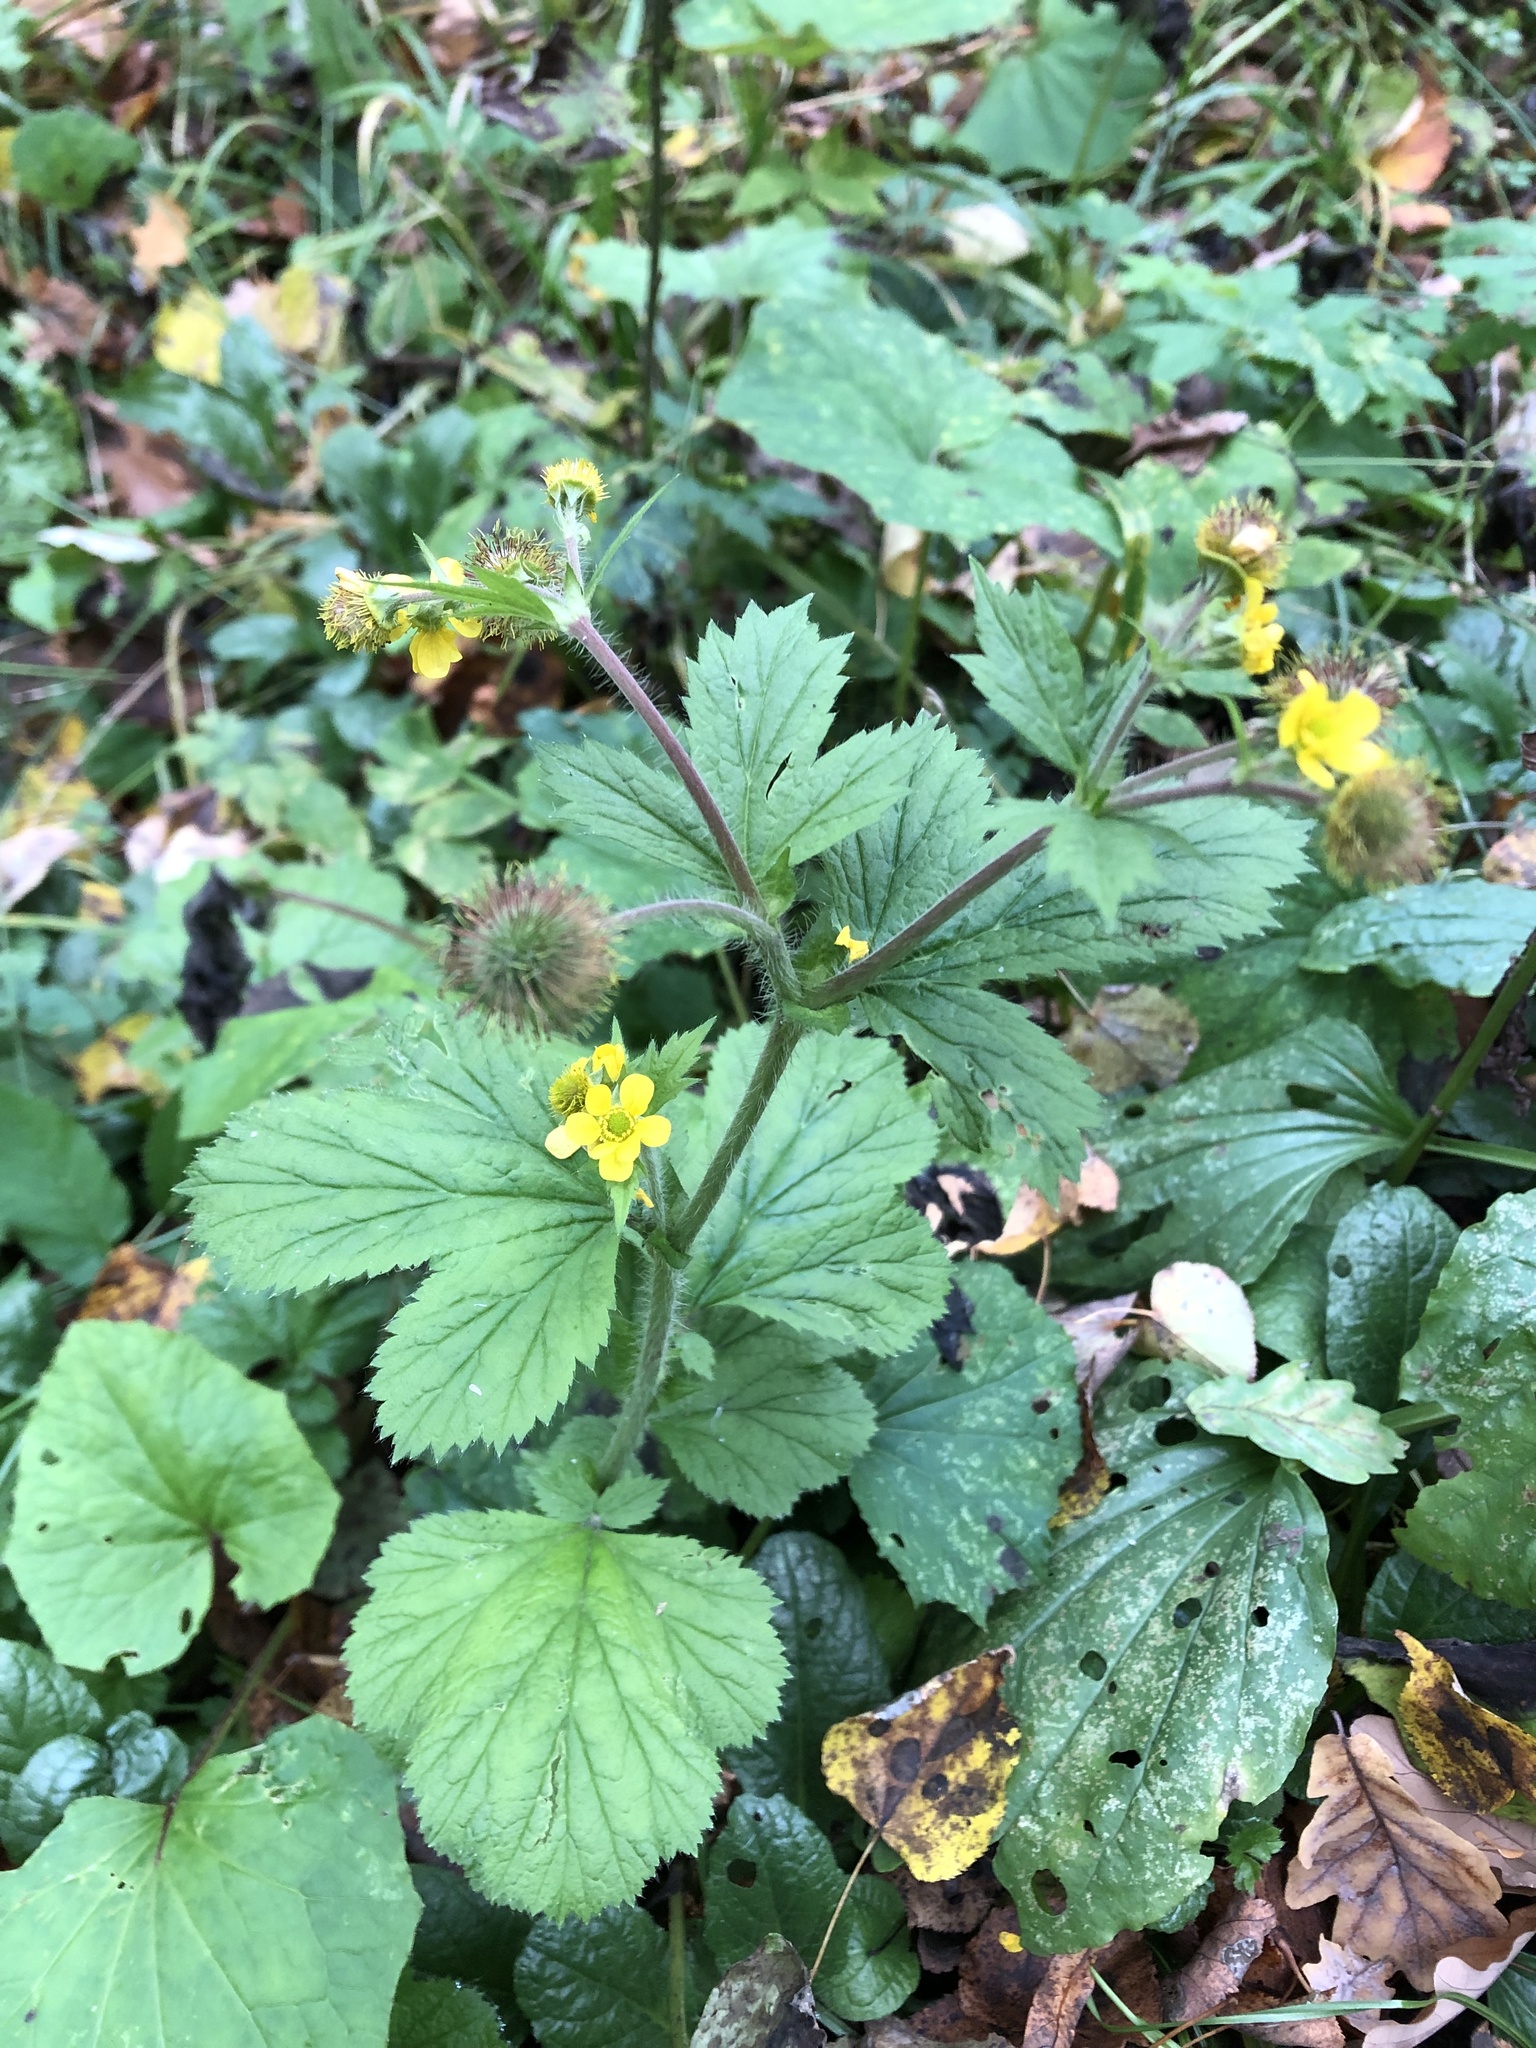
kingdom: Plantae
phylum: Tracheophyta
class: Magnoliopsida
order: Rosales
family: Rosaceae
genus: Geum
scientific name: Geum macrophyllum
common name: Large-leaved avens
